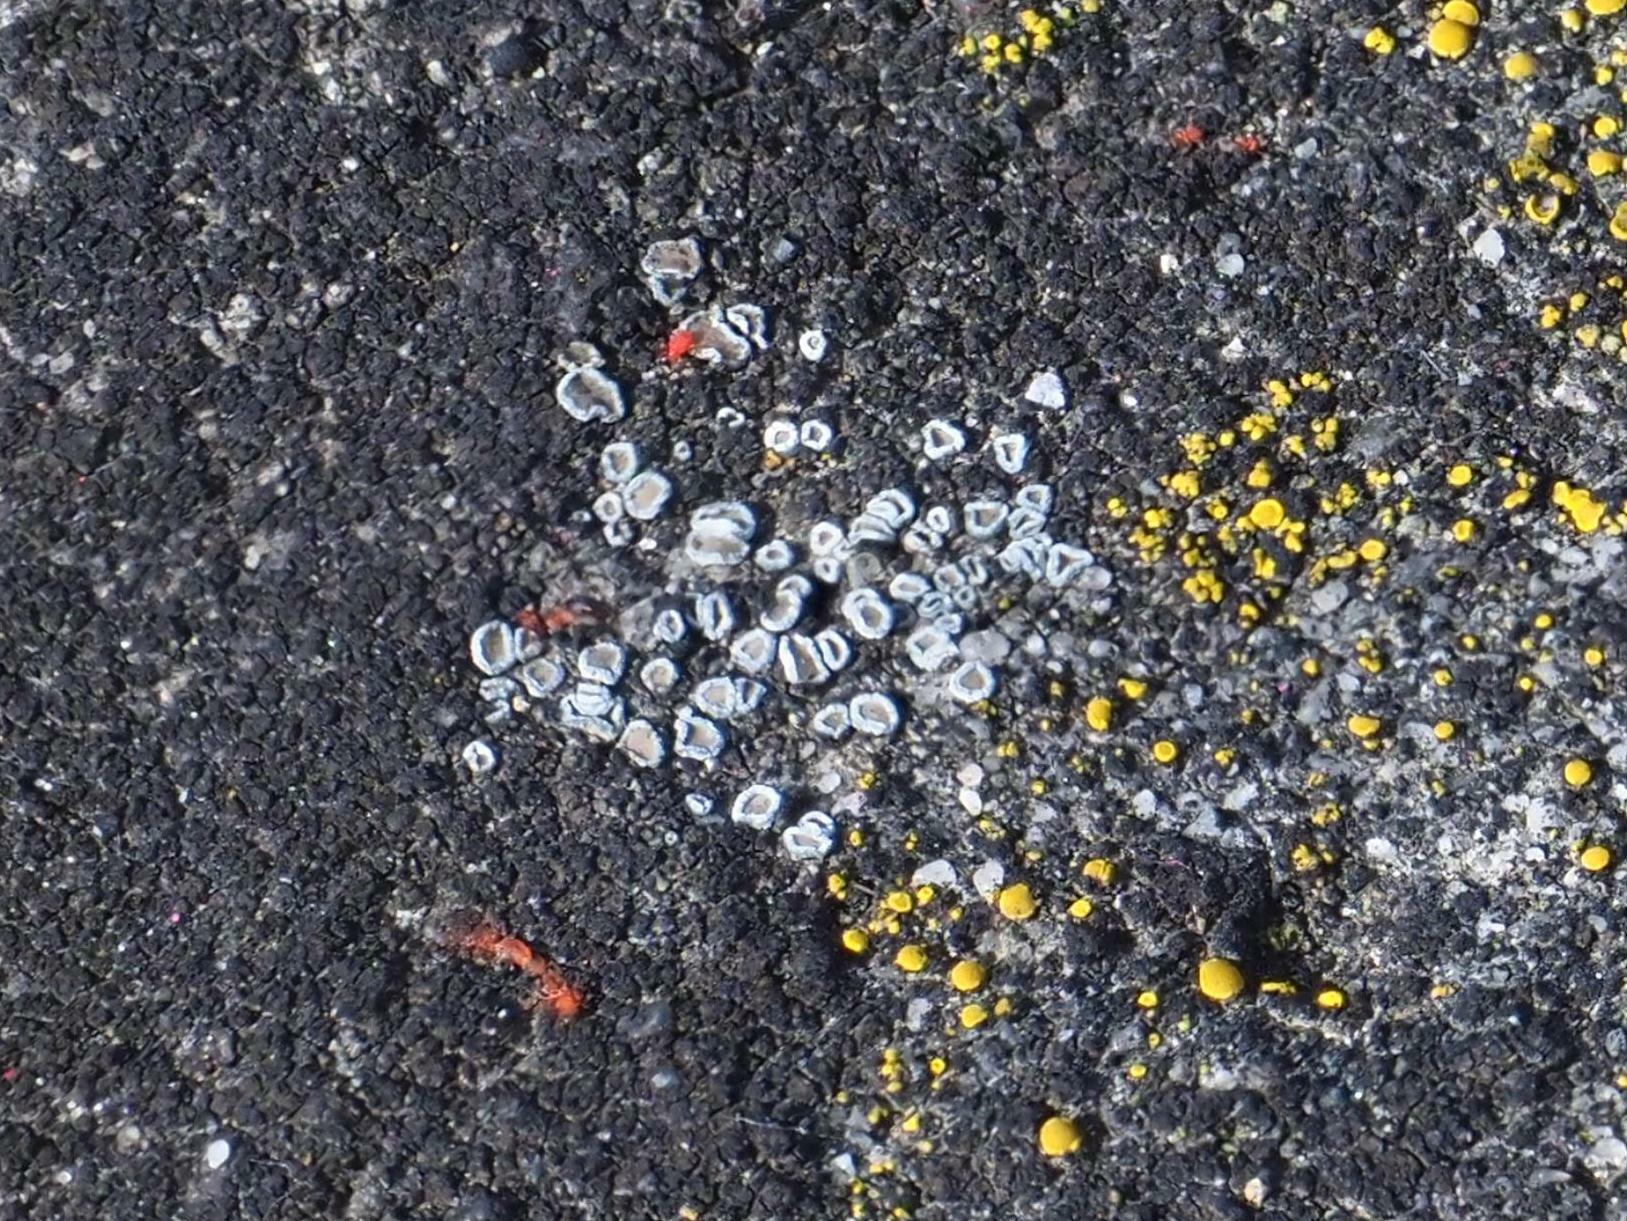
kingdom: Fungi
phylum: Ascomycota
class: Lecanoromycetes
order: Lecanorales
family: Lecanoraceae
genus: Polyozosia
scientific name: Polyozosia dispersa
